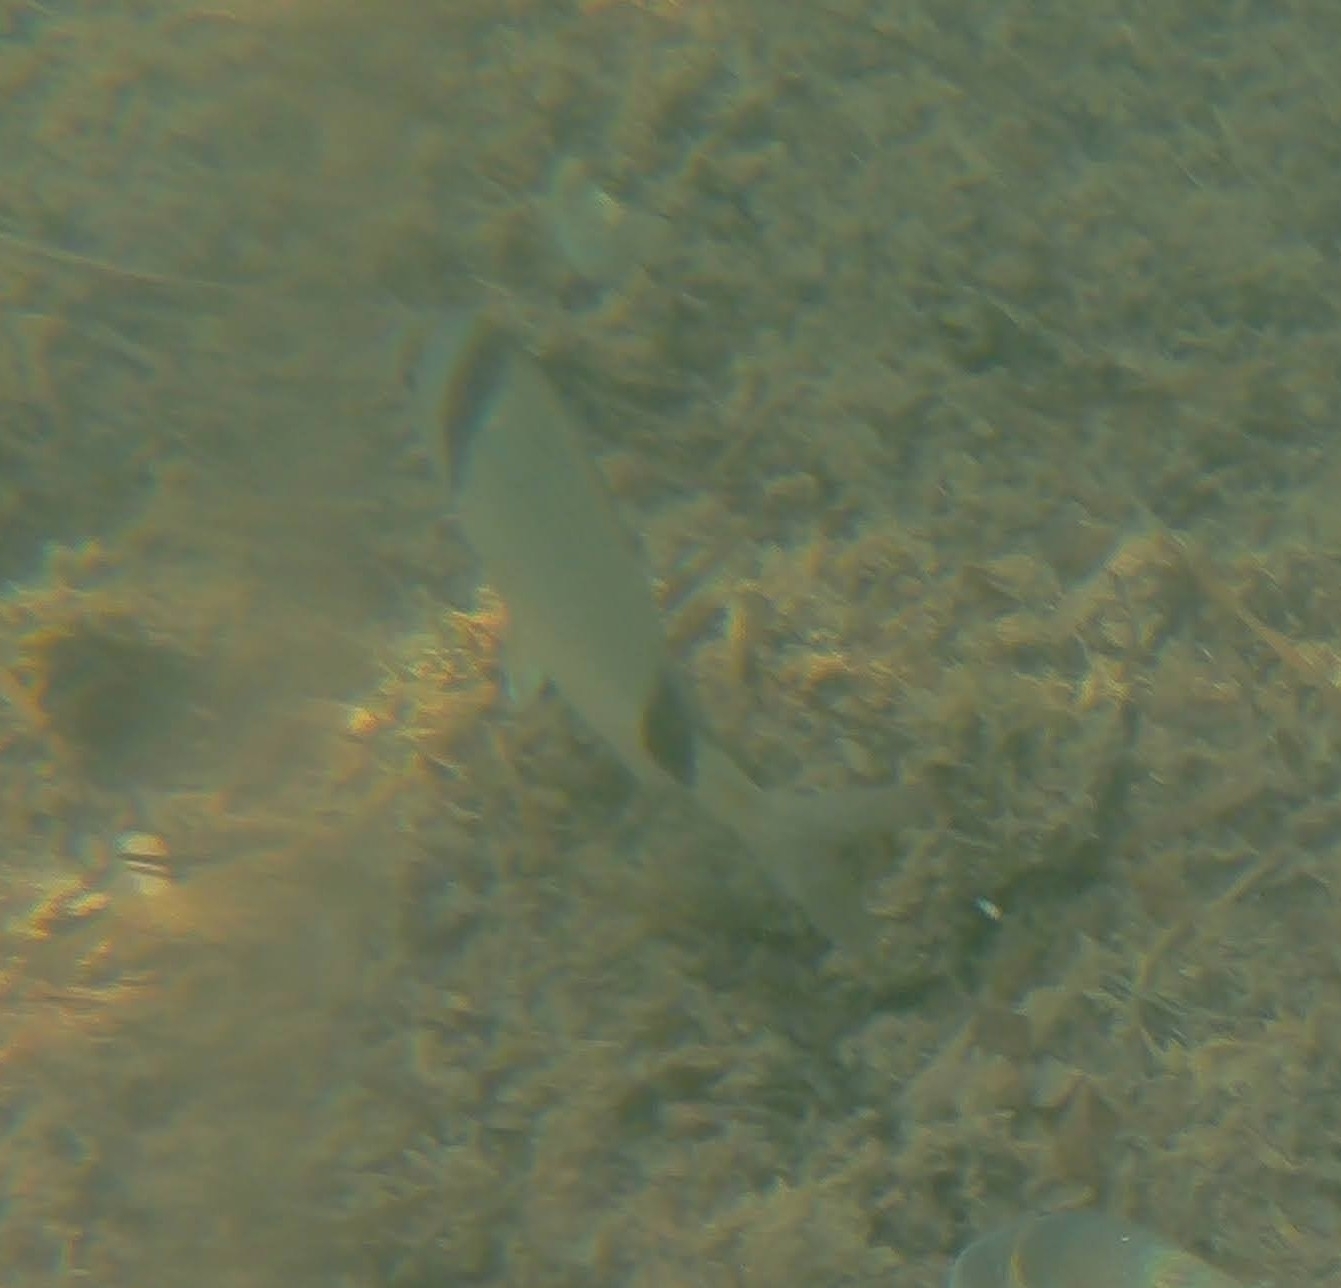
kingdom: Animalia
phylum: Chordata
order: Perciformes
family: Sparidae
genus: Diplodus
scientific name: Diplodus vulgaris
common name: Common two-banded seabream
